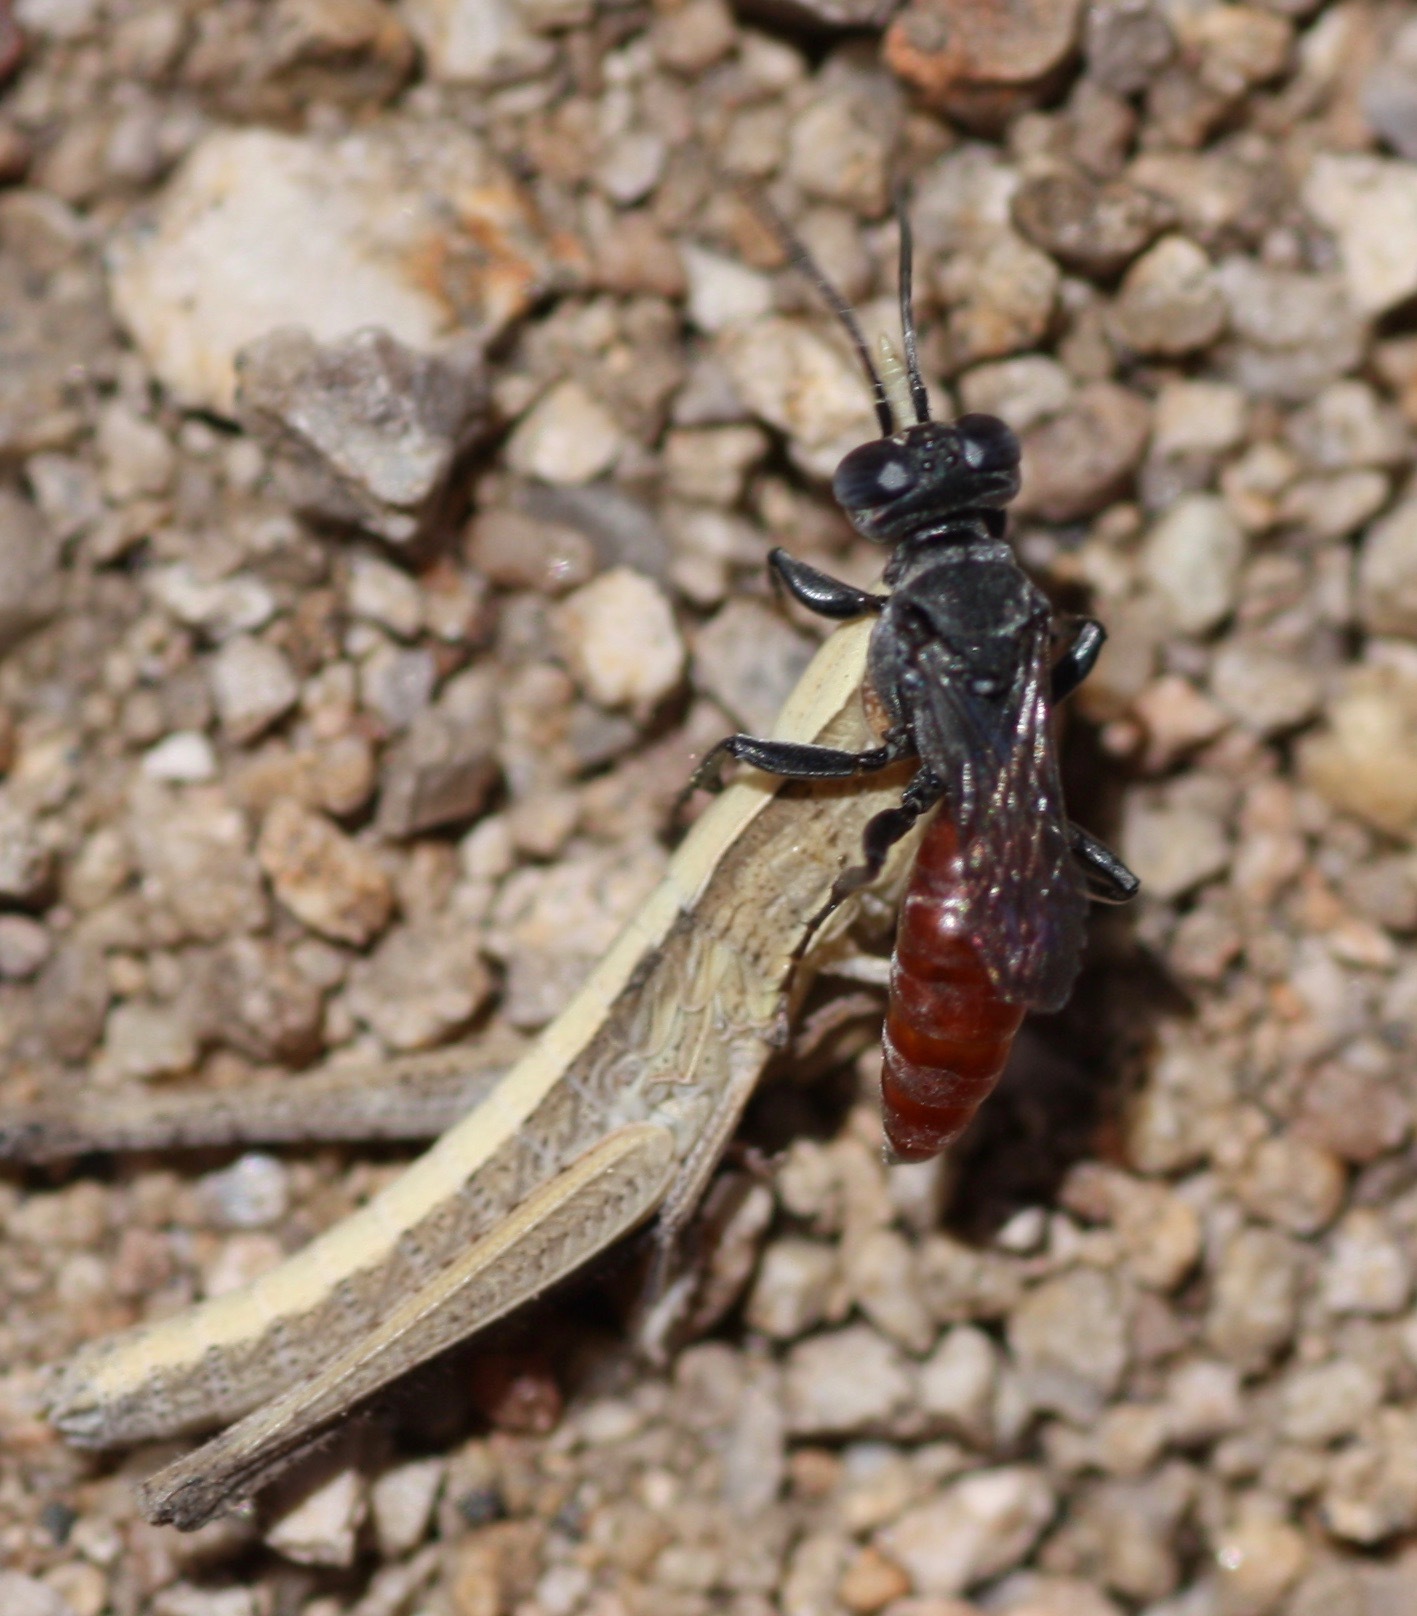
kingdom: Animalia
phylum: Arthropoda
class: Insecta
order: Hymenoptera
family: Crabronidae
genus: Solierella
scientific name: Solierella
